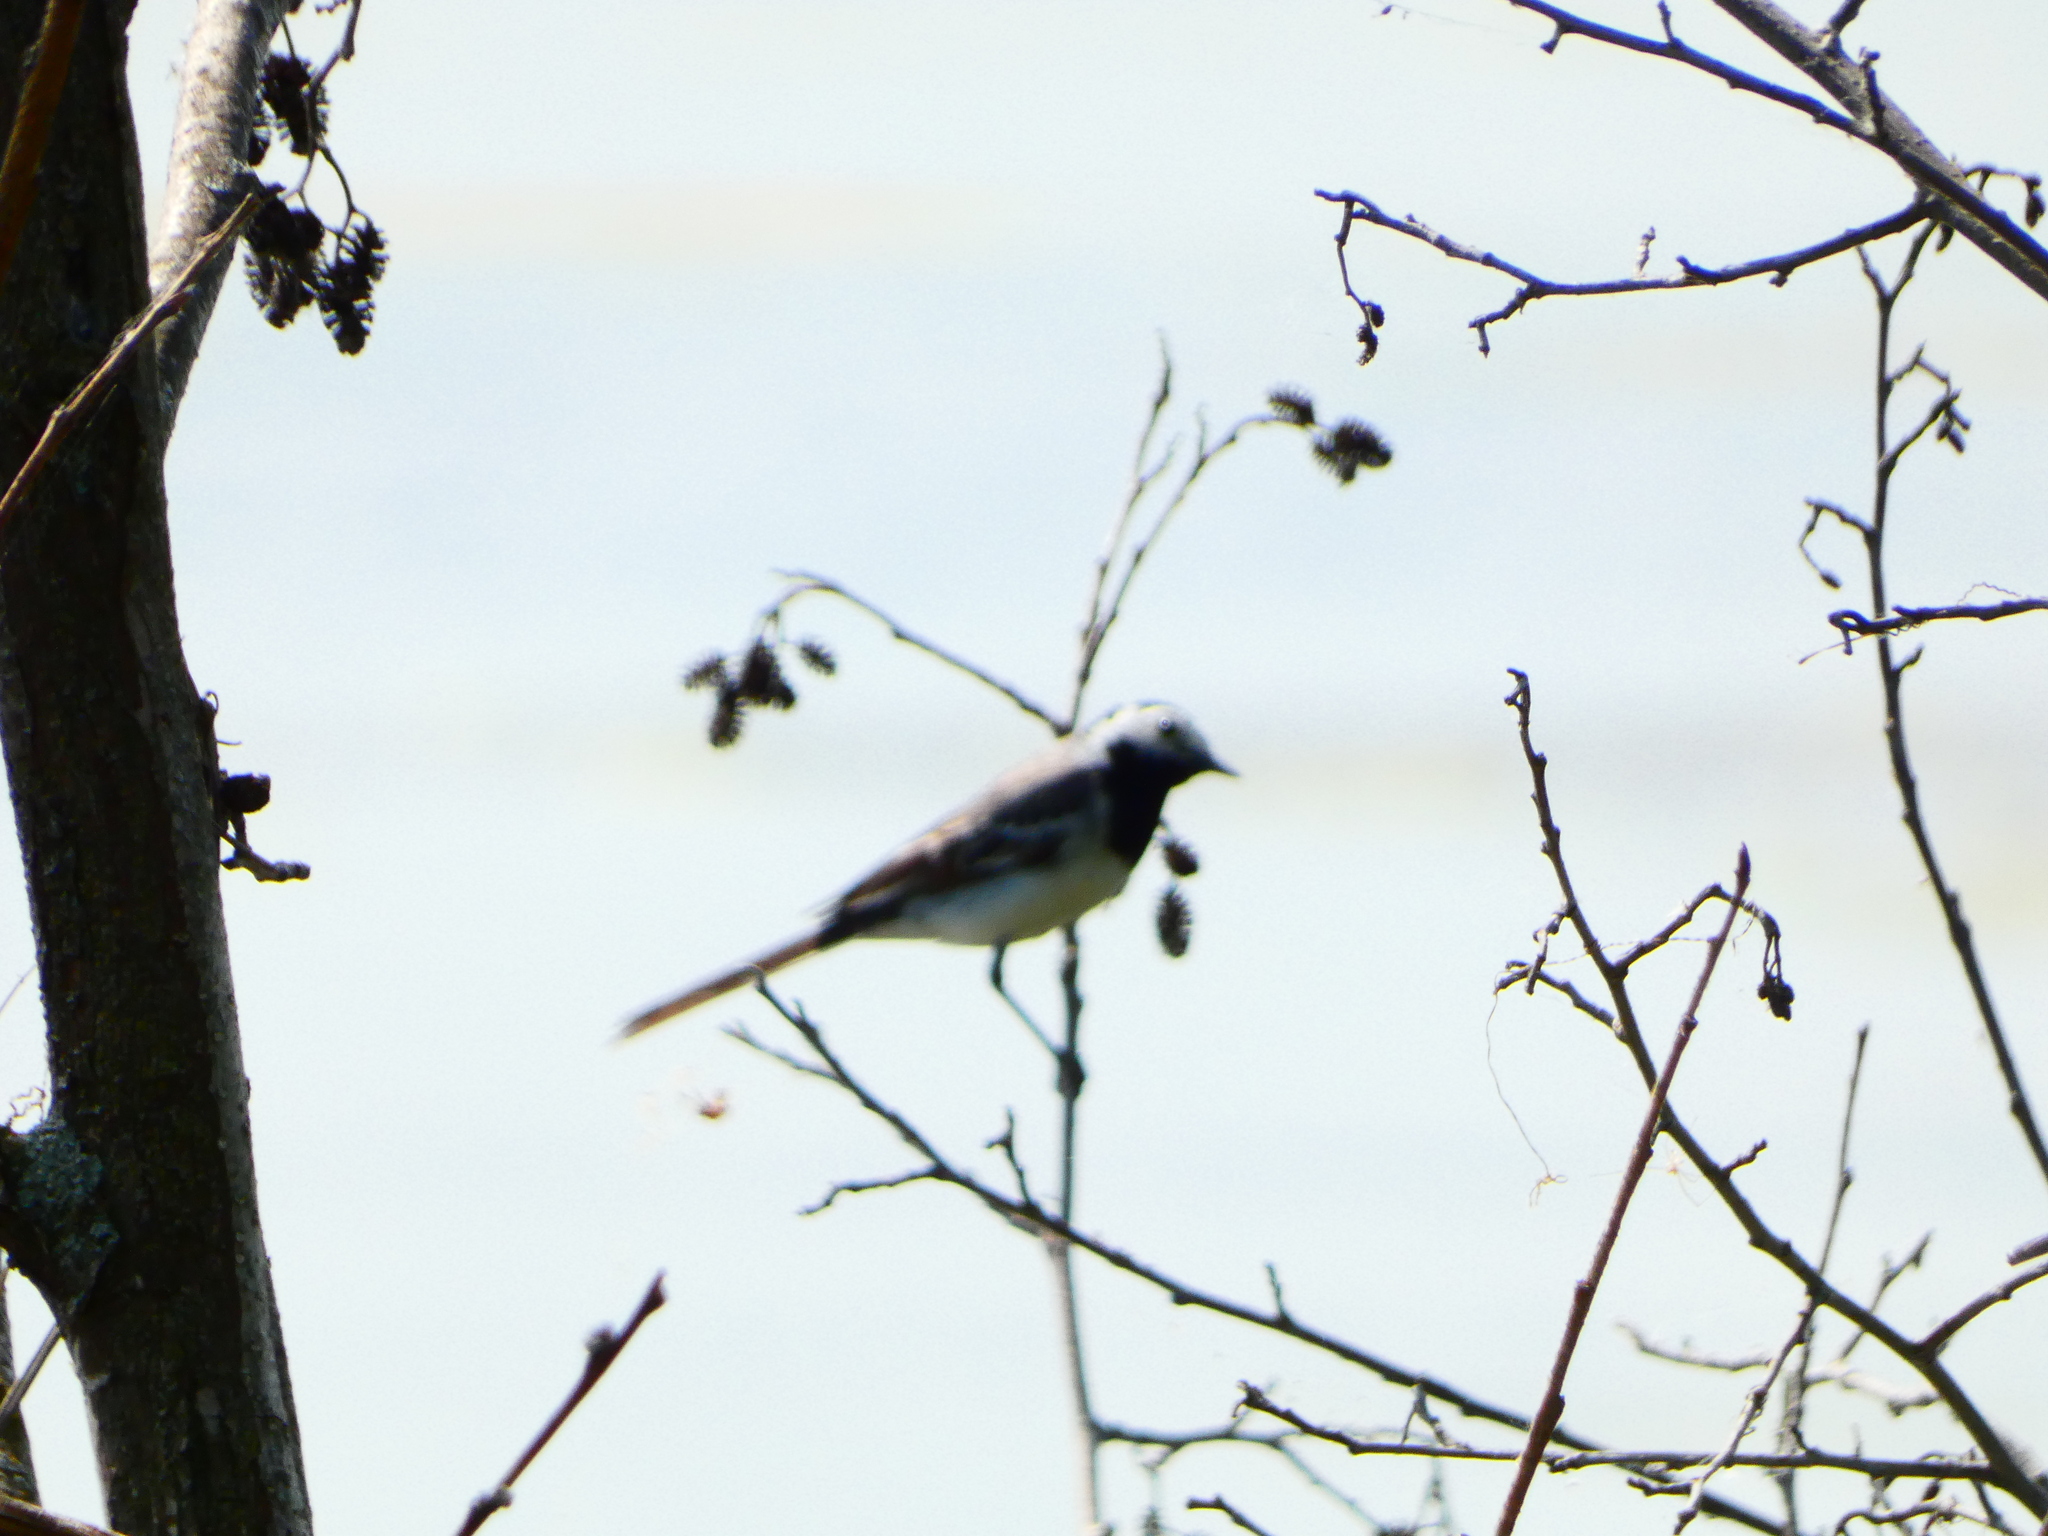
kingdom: Animalia
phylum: Chordata
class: Aves
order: Passeriformes
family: Motacillidae
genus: Motacilla
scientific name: Motacilla alba
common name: White wagtail
